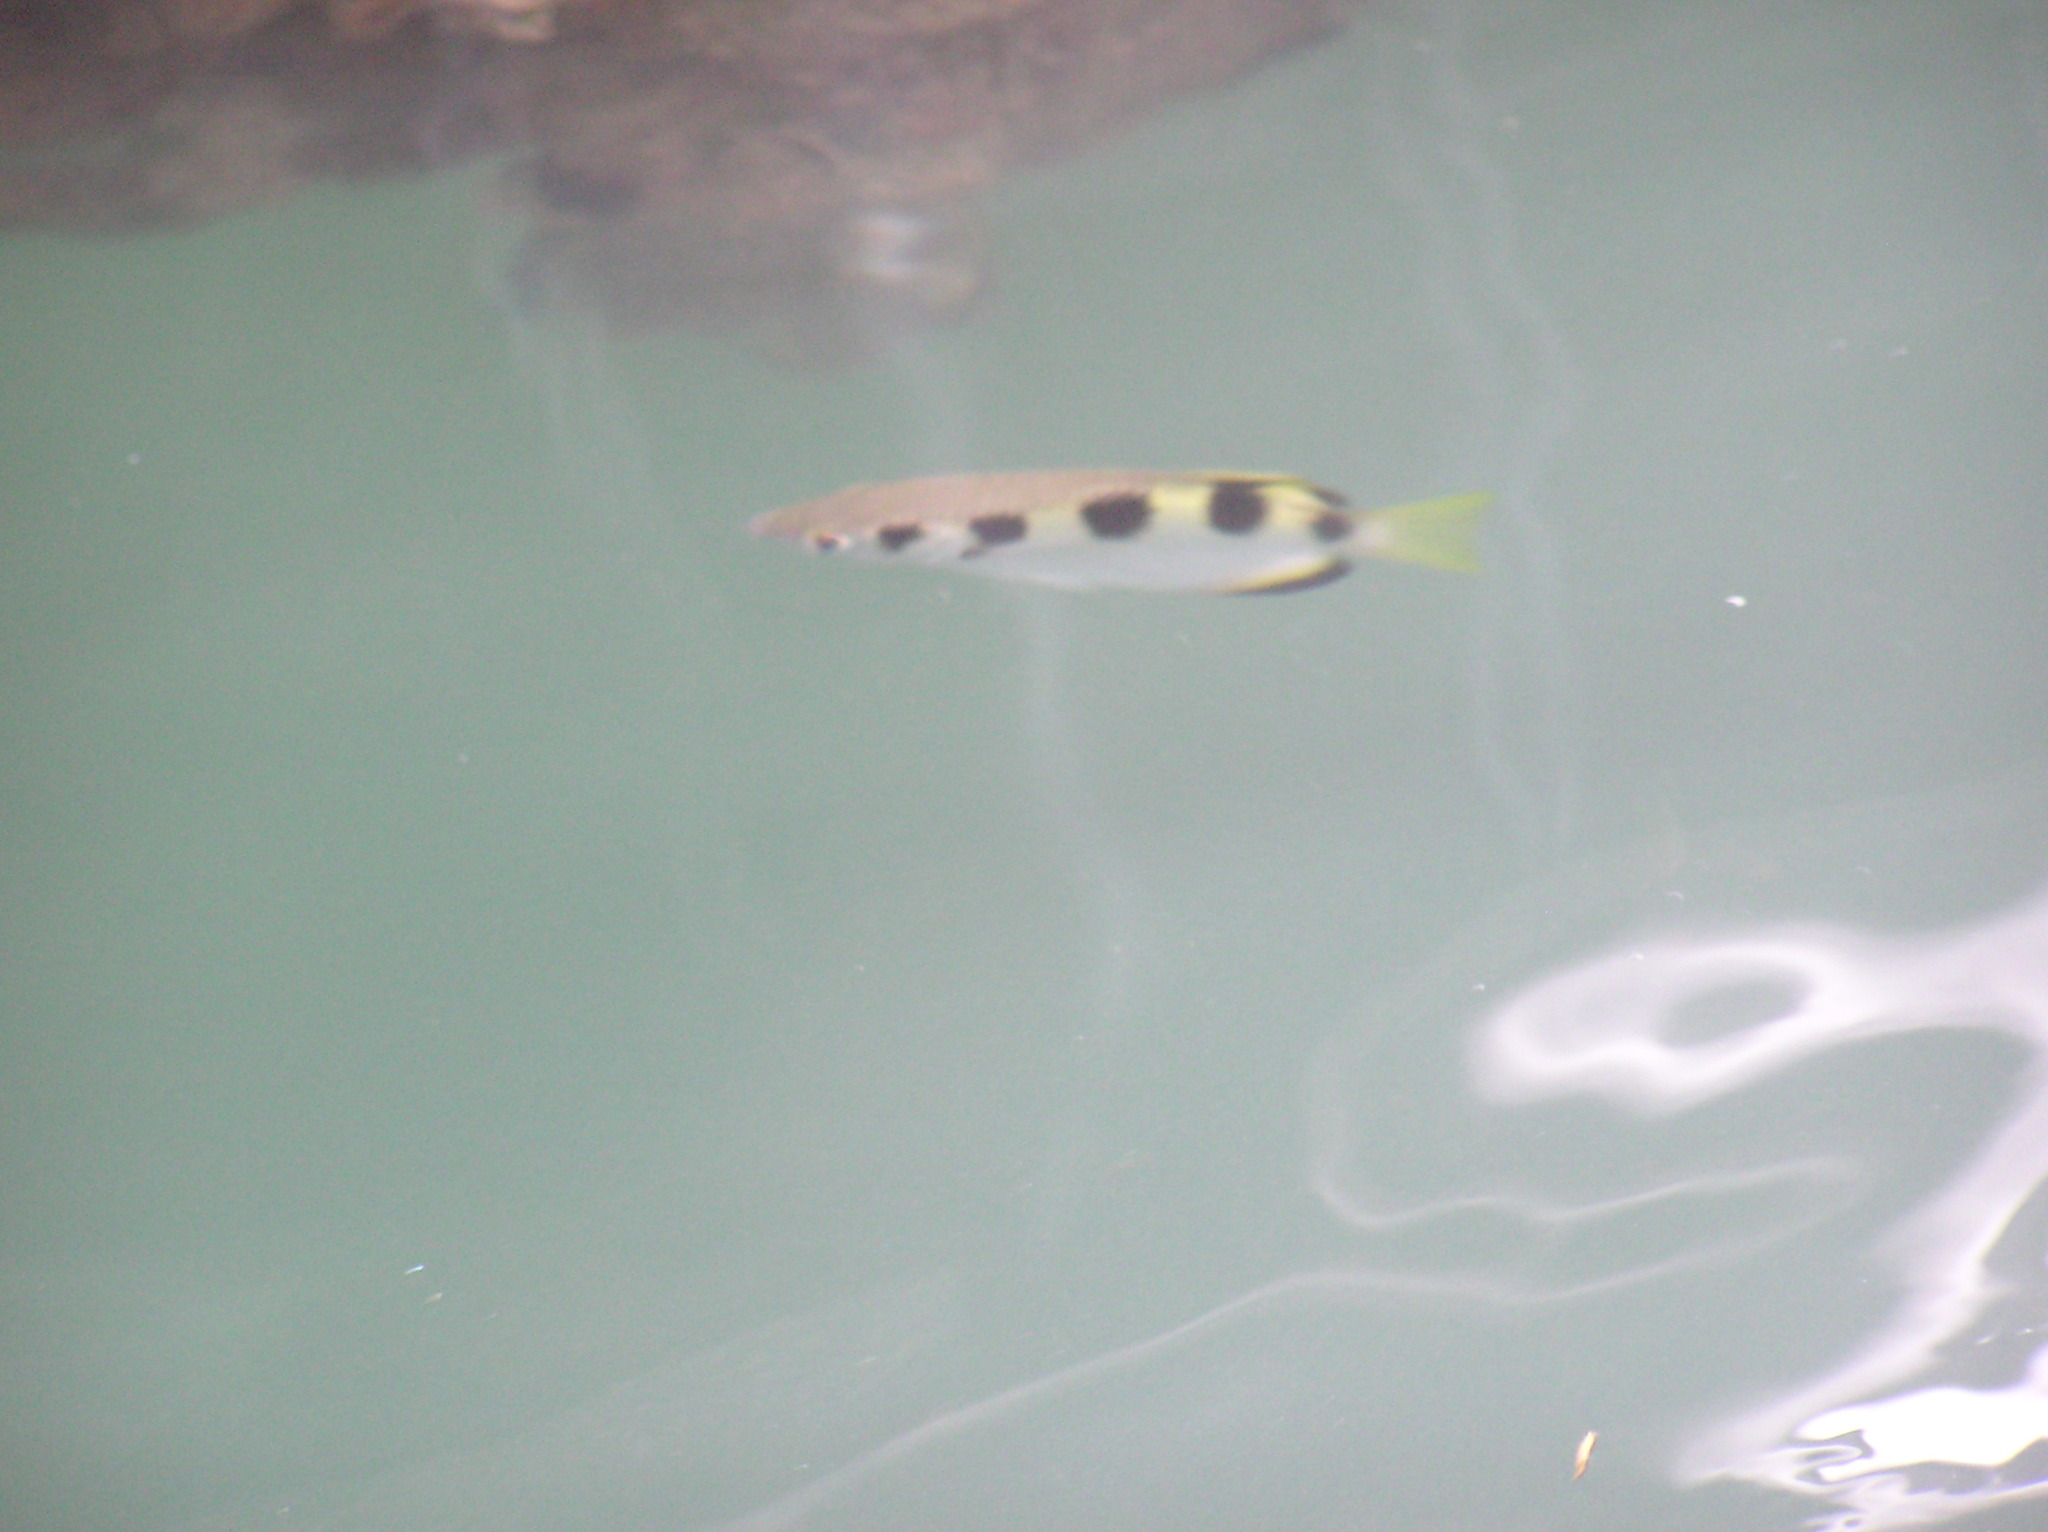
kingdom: Animalia
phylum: Chordata
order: Perciformes
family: Toxotidae
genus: Toxotes
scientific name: Toxotes jaculatrix
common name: Banded archerfish
